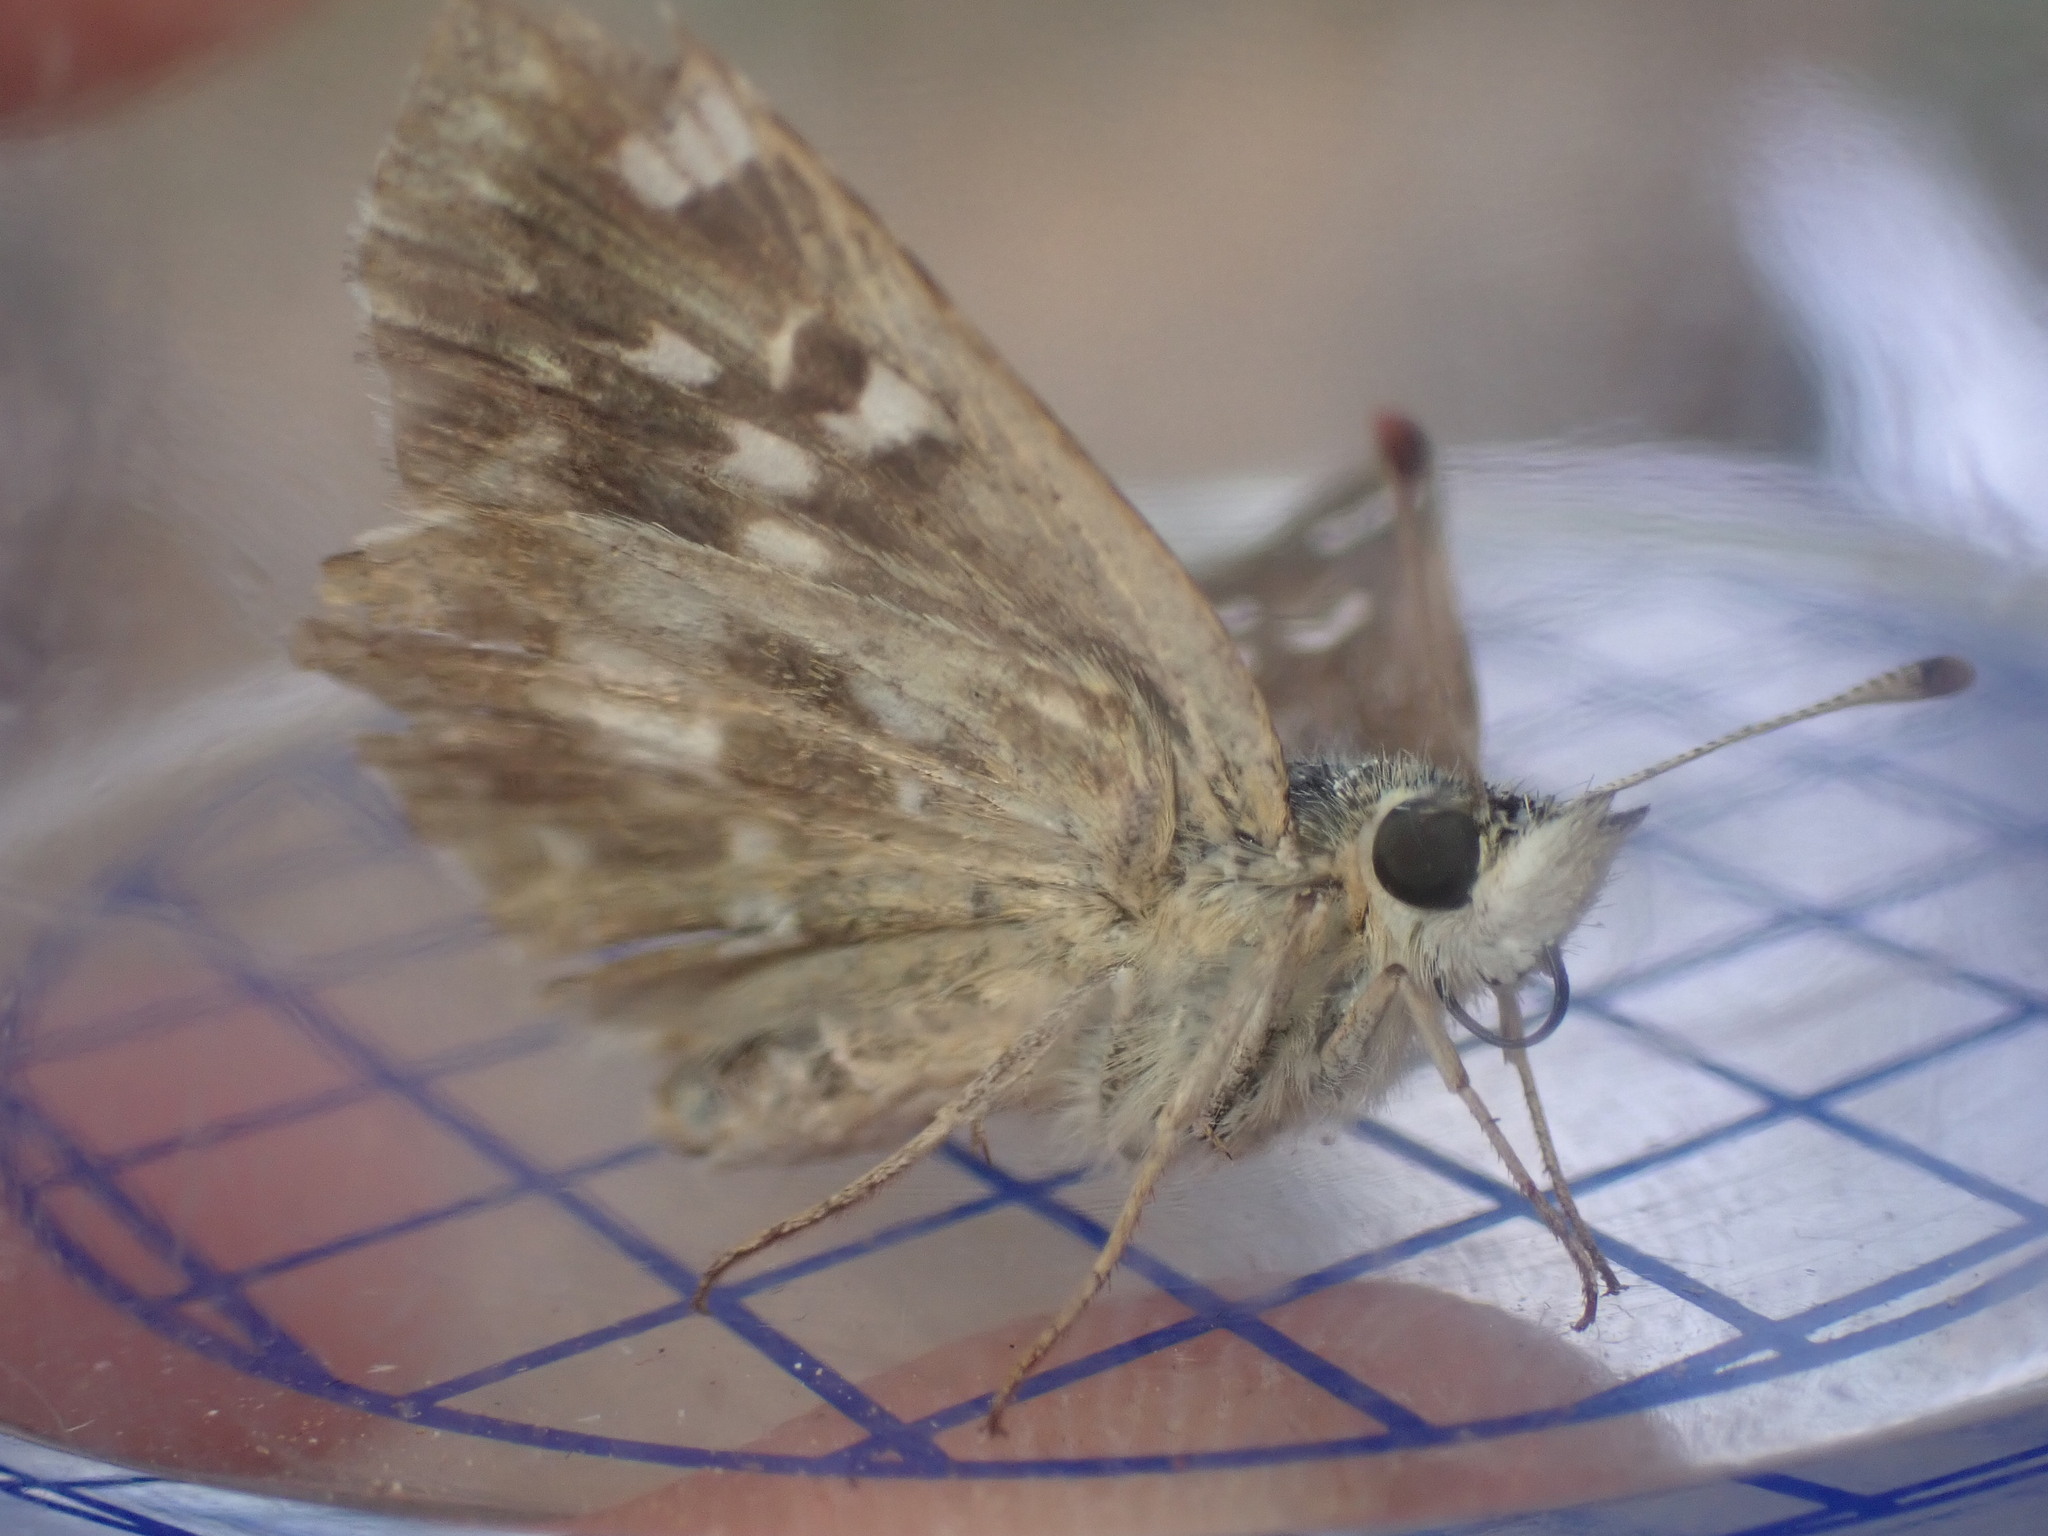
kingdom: Animalia
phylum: Arthropoda
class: Insecta
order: Lepidoptera
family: Hesperiidae
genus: Syrichtus
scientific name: Syrichtus Muschampia proto
